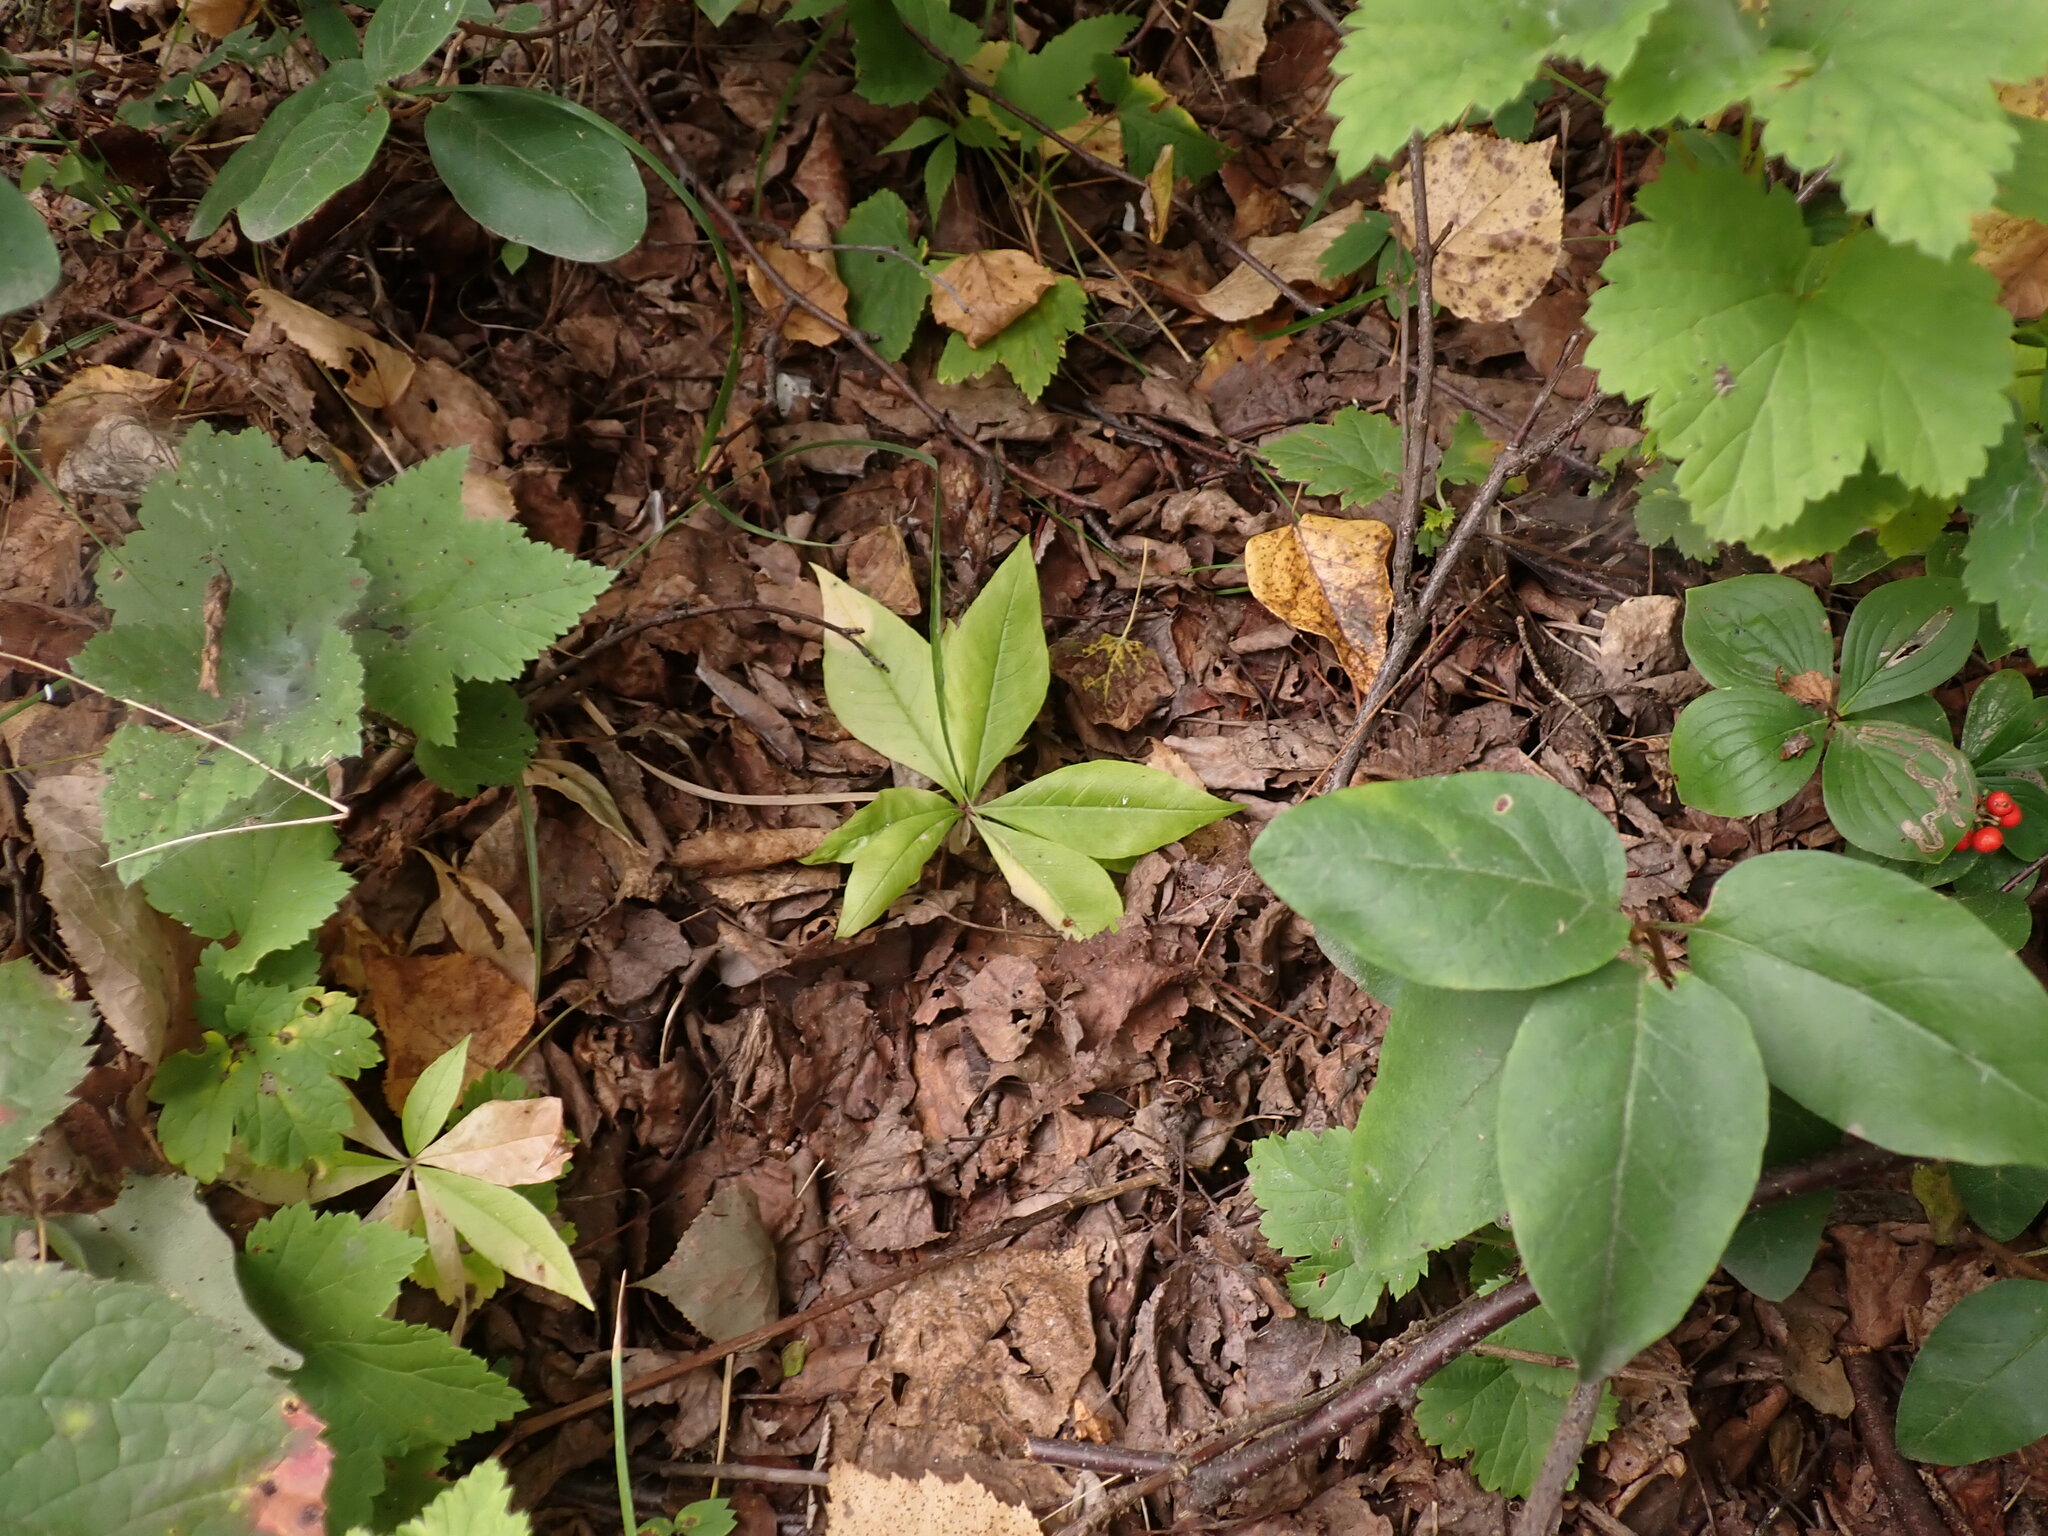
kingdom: Plantae
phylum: Tracheophyta
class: Magnoliopsida
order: Ericales
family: Primulaceae
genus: Lysimachia
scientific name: Lysimachia borealis
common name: American starflower
